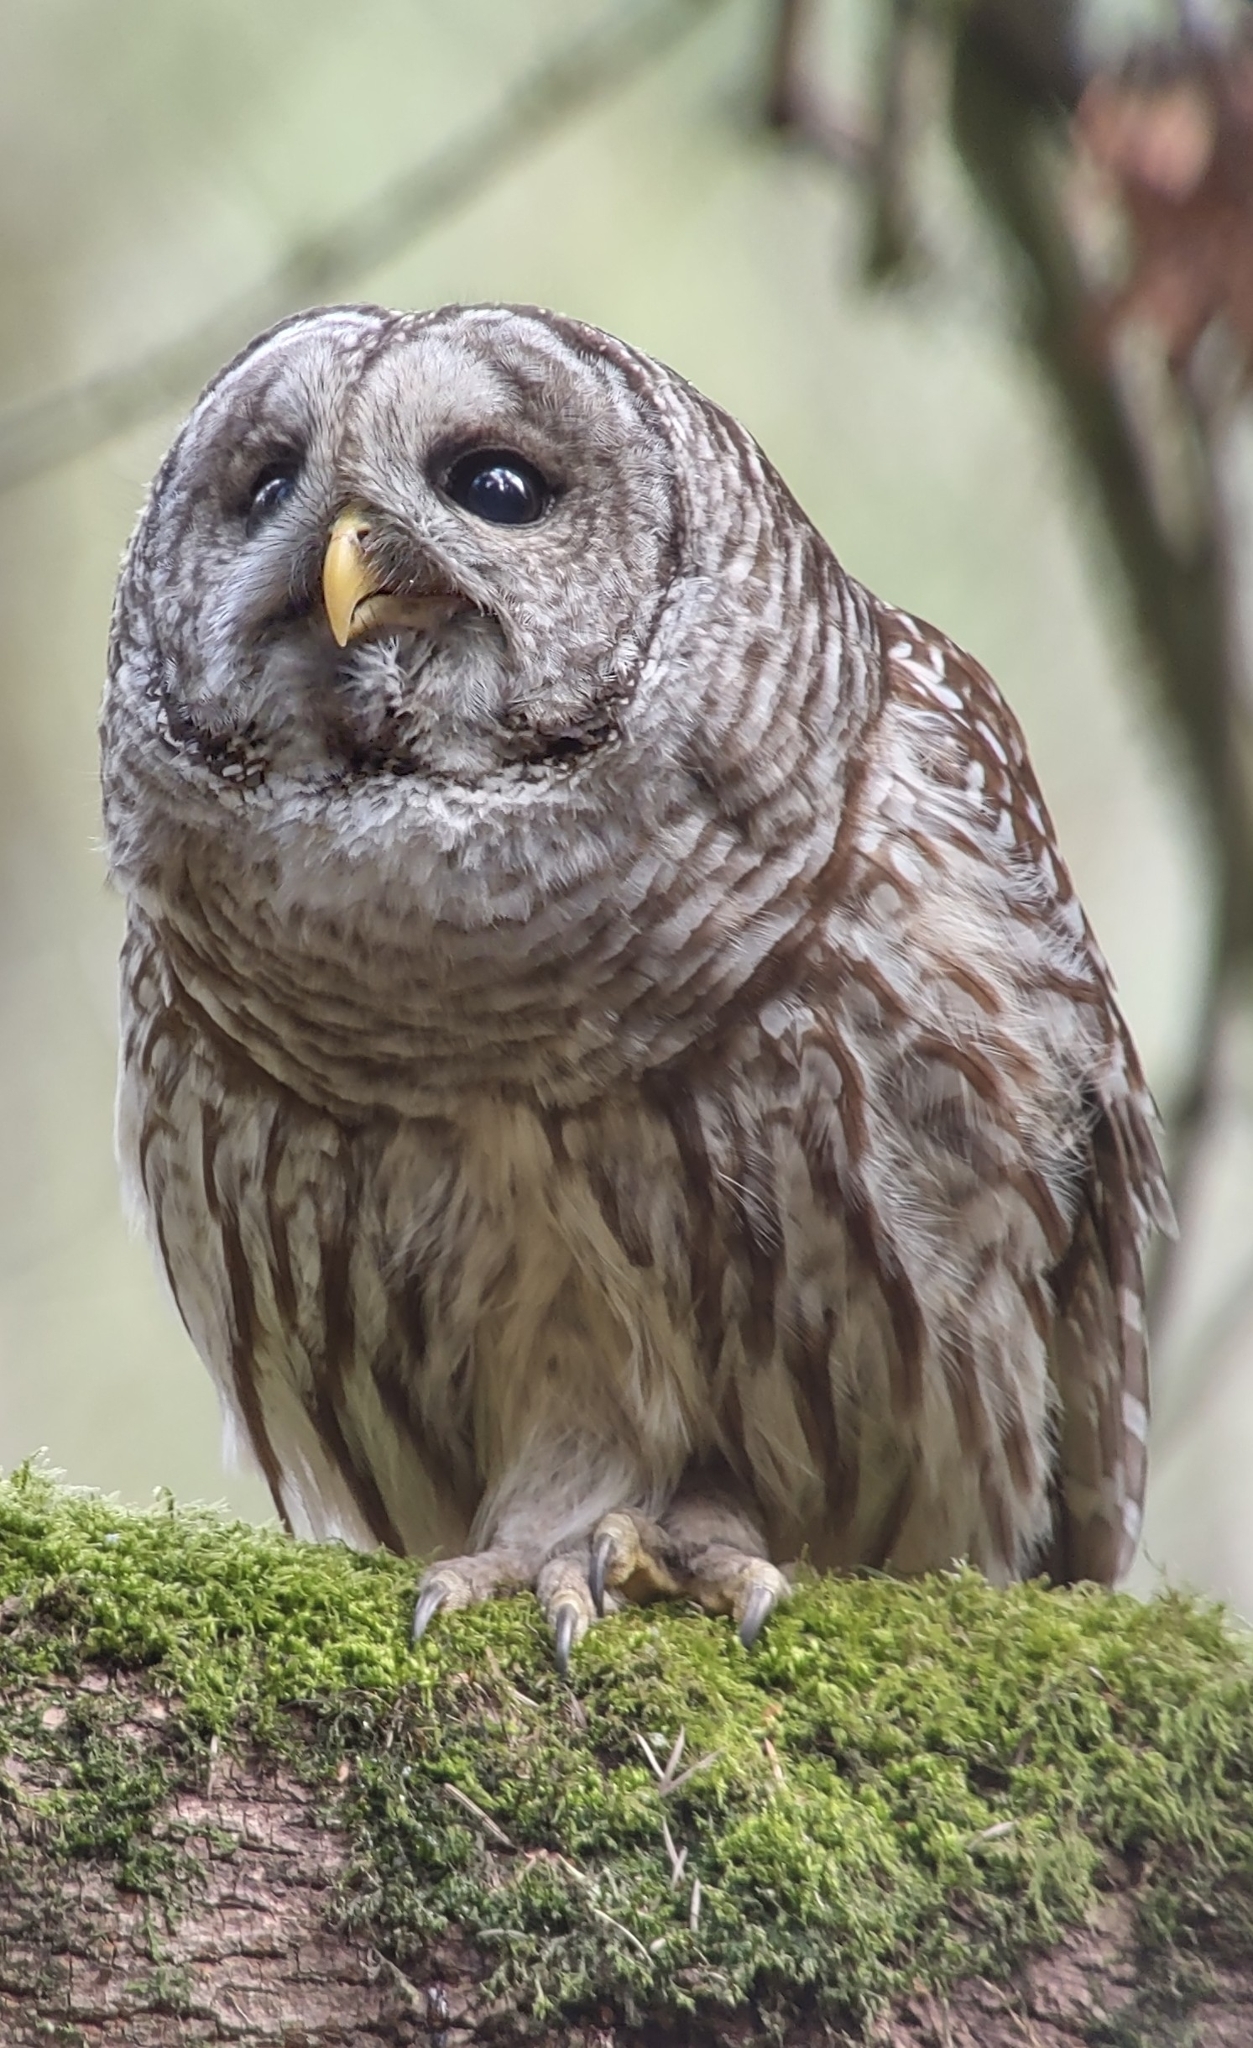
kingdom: Animalia
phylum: Chordata
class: Aves
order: Strigiformes
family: Strigidae
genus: Strix
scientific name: Strix varia
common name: Barred owl
